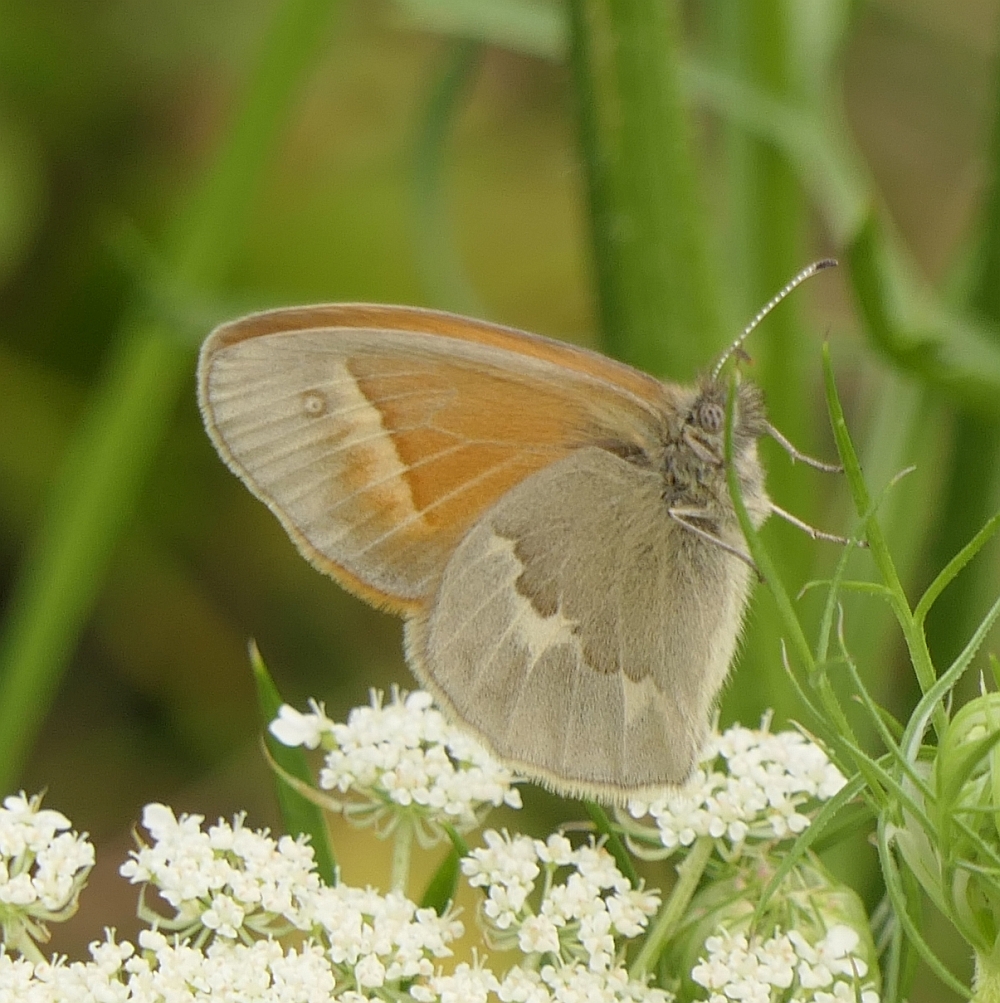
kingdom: Animalia
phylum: Arthropoda
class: Insecta
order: Lepidoptera
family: Nymphalidae
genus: Coenonympha
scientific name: Coenonympha california
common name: Common ringlet
